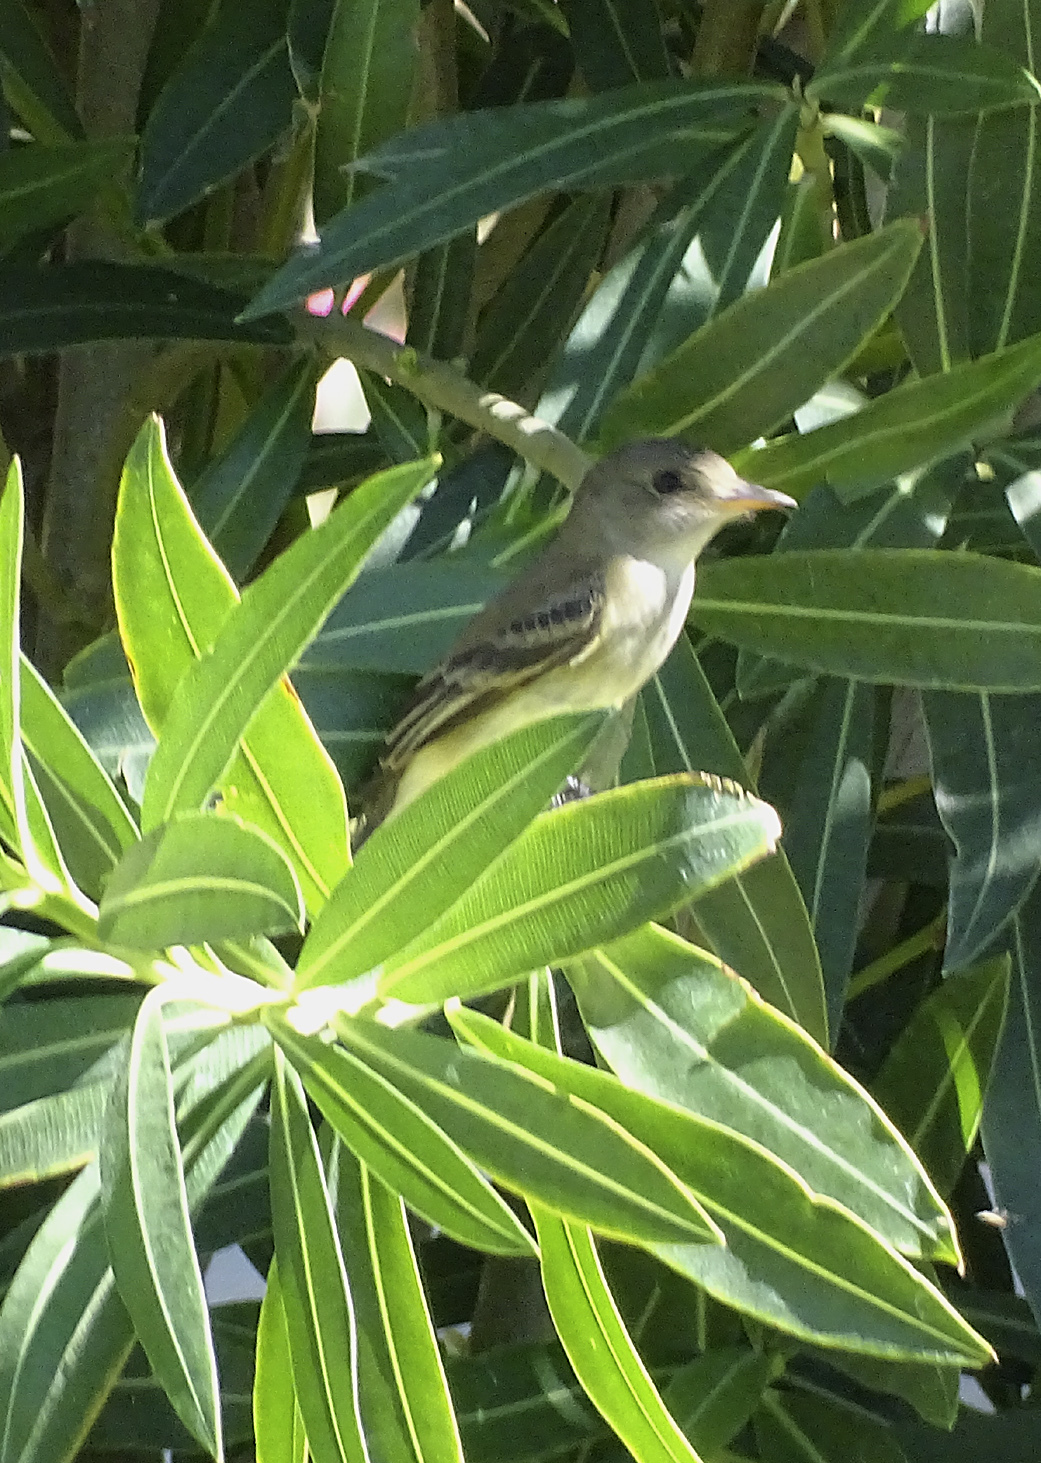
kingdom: Animalia
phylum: Chordata
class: Aves
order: Passeriformes
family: Tyrannidae
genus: Empidonax
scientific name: Empidonax traillii
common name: Willow flycatcher
